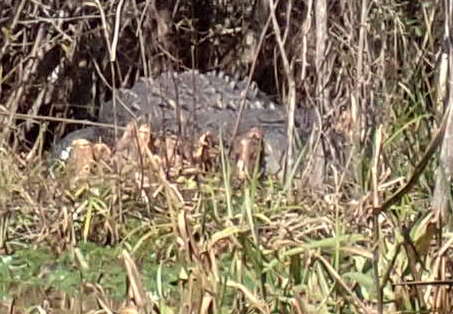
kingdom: Animalia
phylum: Chordata
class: Crocodylia
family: Alligatoridae
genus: Alligator
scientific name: Alligator mississippiensis
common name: American alligator
